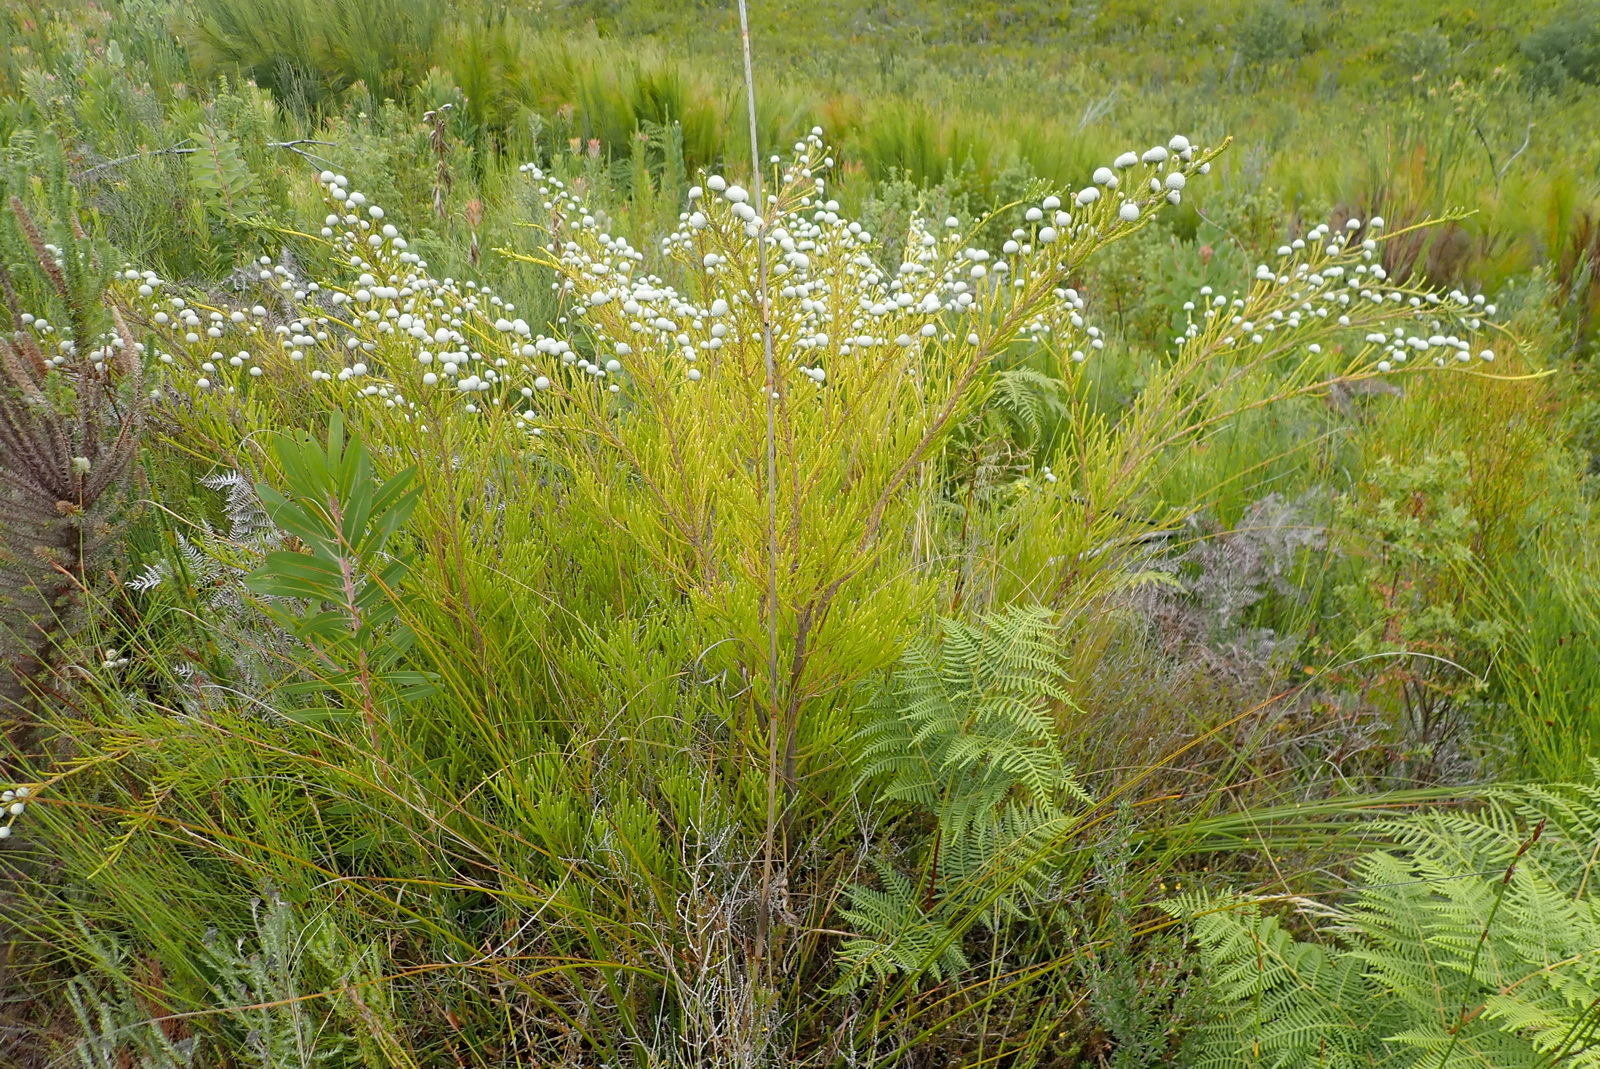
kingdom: Plantae
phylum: Tracheophyta
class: Magnoliopsida
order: Bruniales
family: Bruniaceae
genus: Brunia
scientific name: Brunia noduliflora
